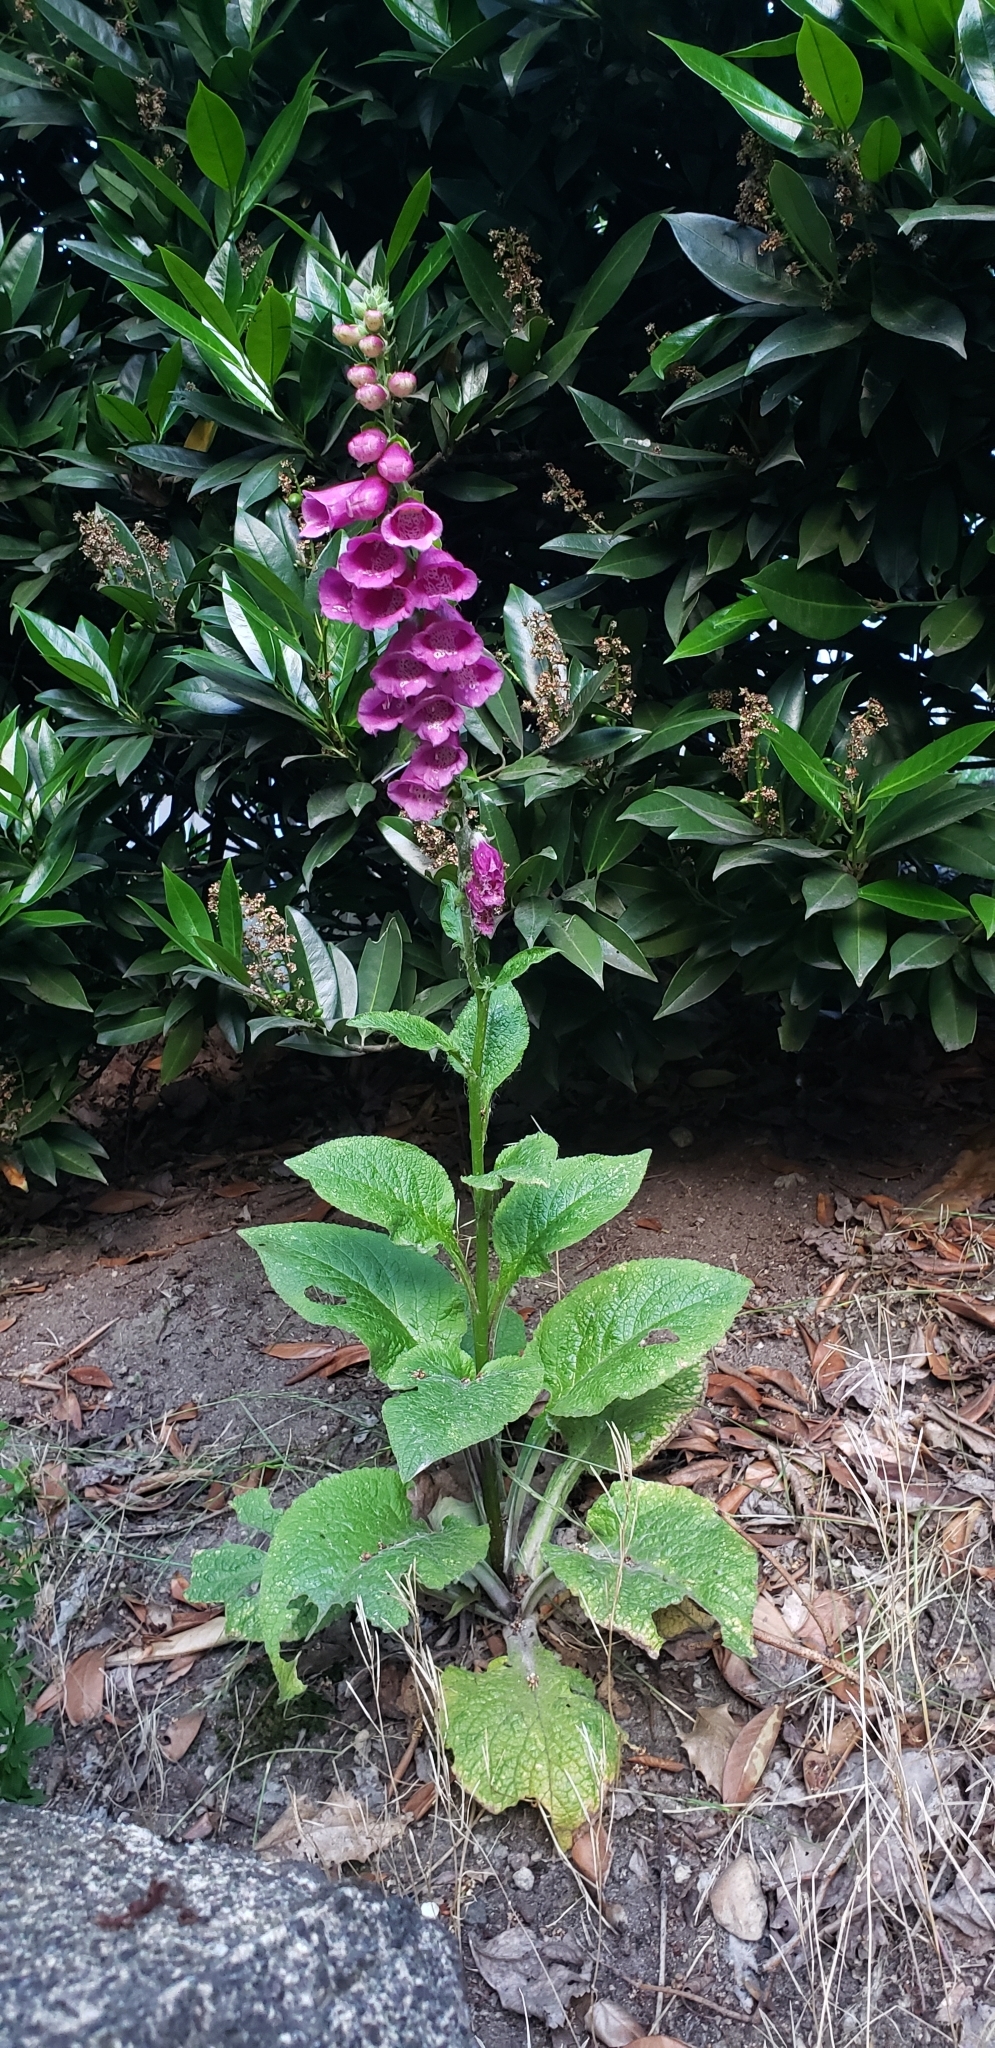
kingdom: Plantae
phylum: Tracheophyta
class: Magnoliopsida
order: Lamiales
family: Plantaginaceae
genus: Digitalis
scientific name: Digitalis purpurea
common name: Foxglove
